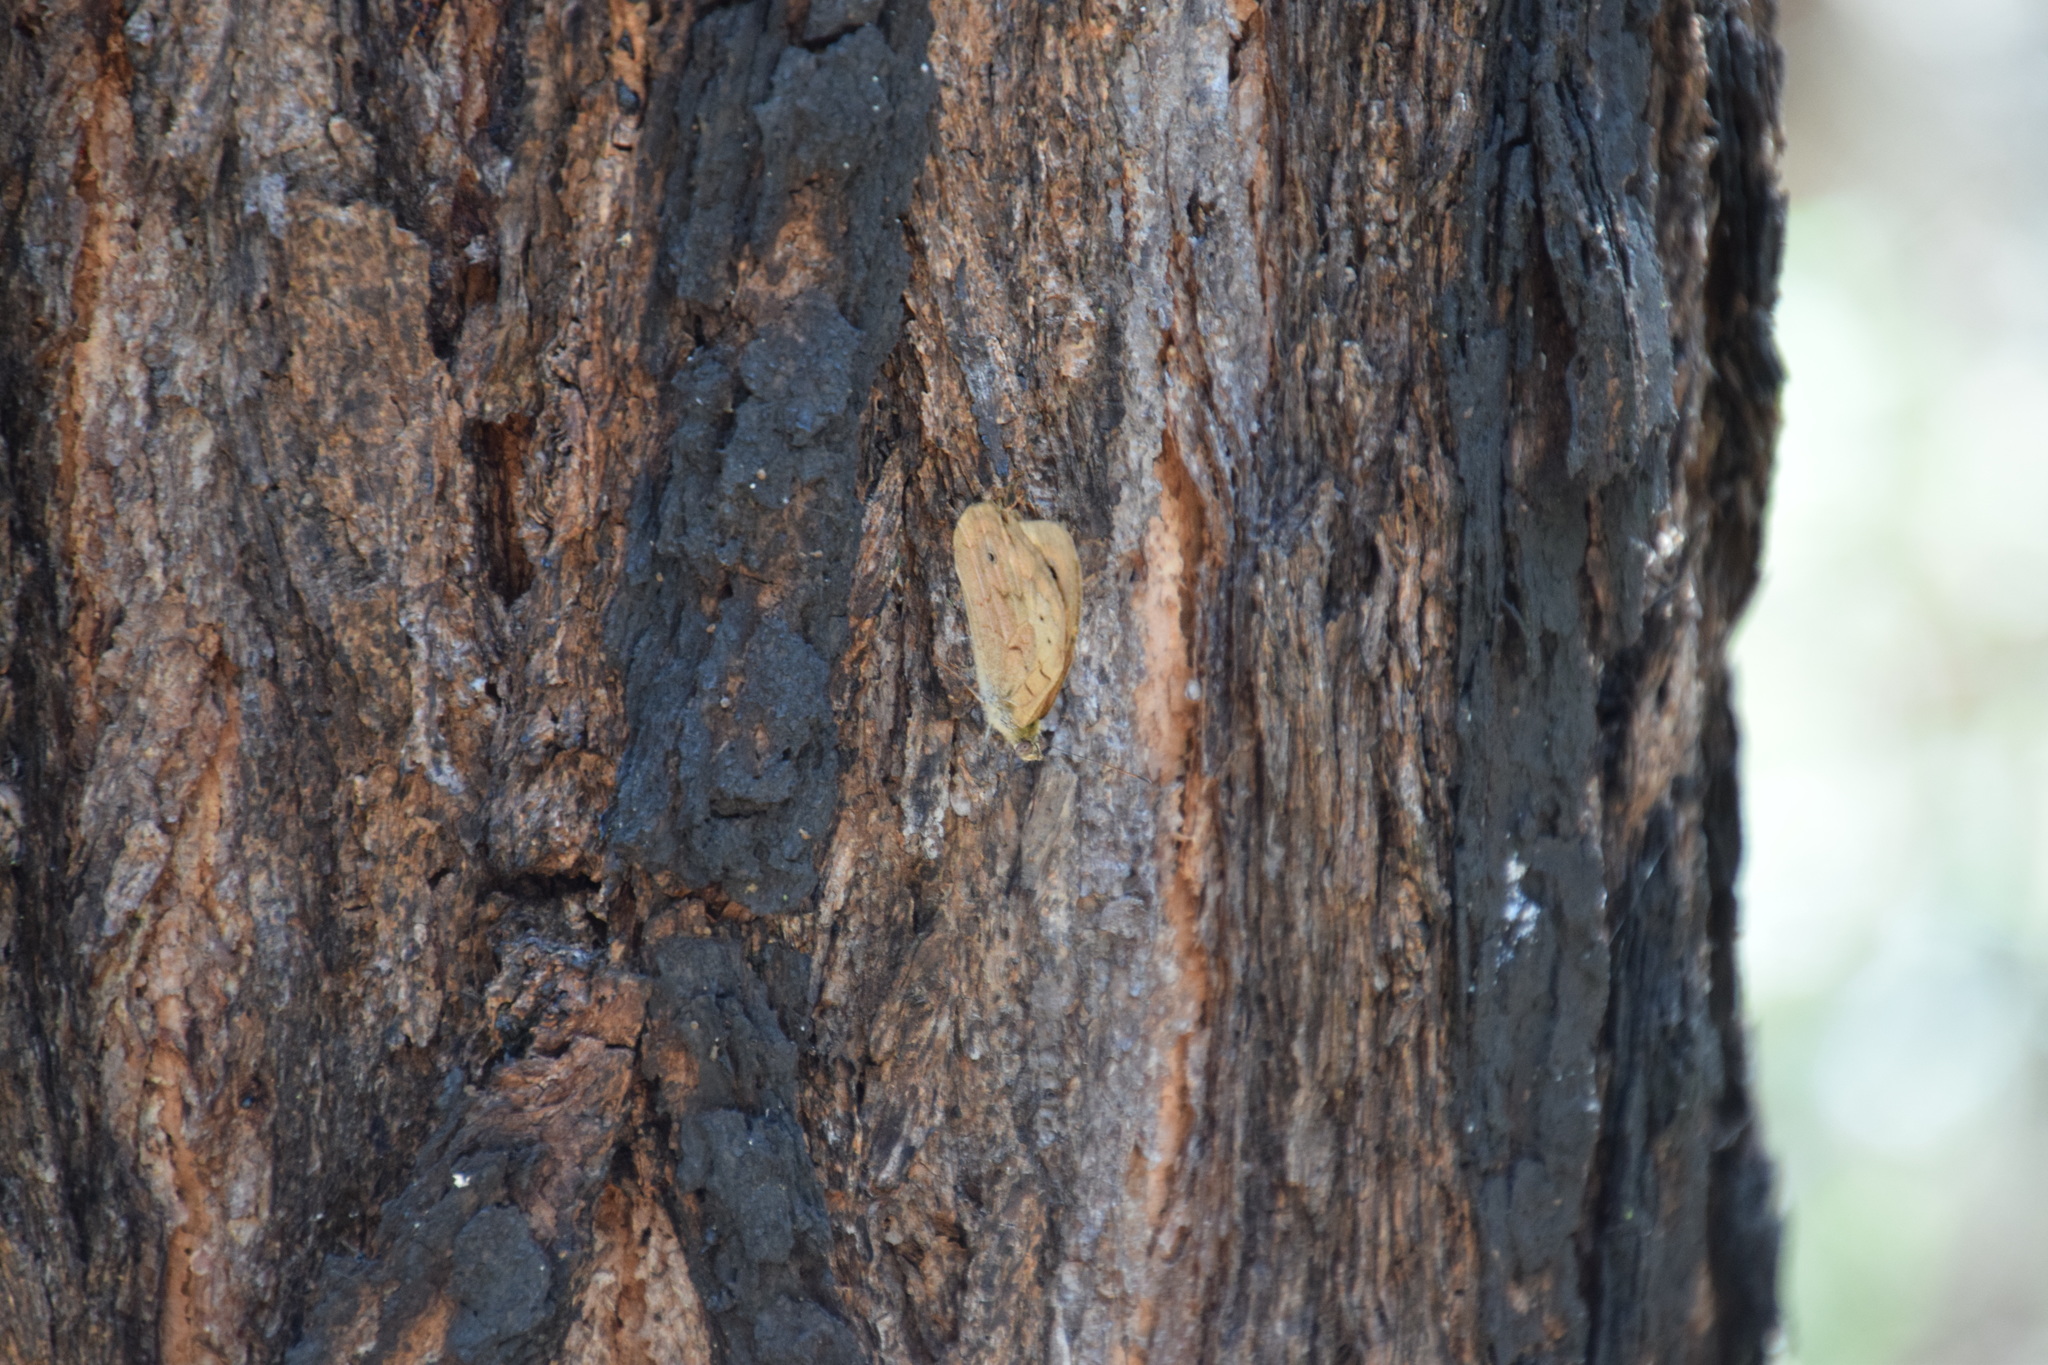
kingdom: Animalia
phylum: Arthropoda
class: Insecta
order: Lepidoptera
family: Nymphalidae
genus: Heteronympha
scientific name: Heteronympha merope
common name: Common brown
